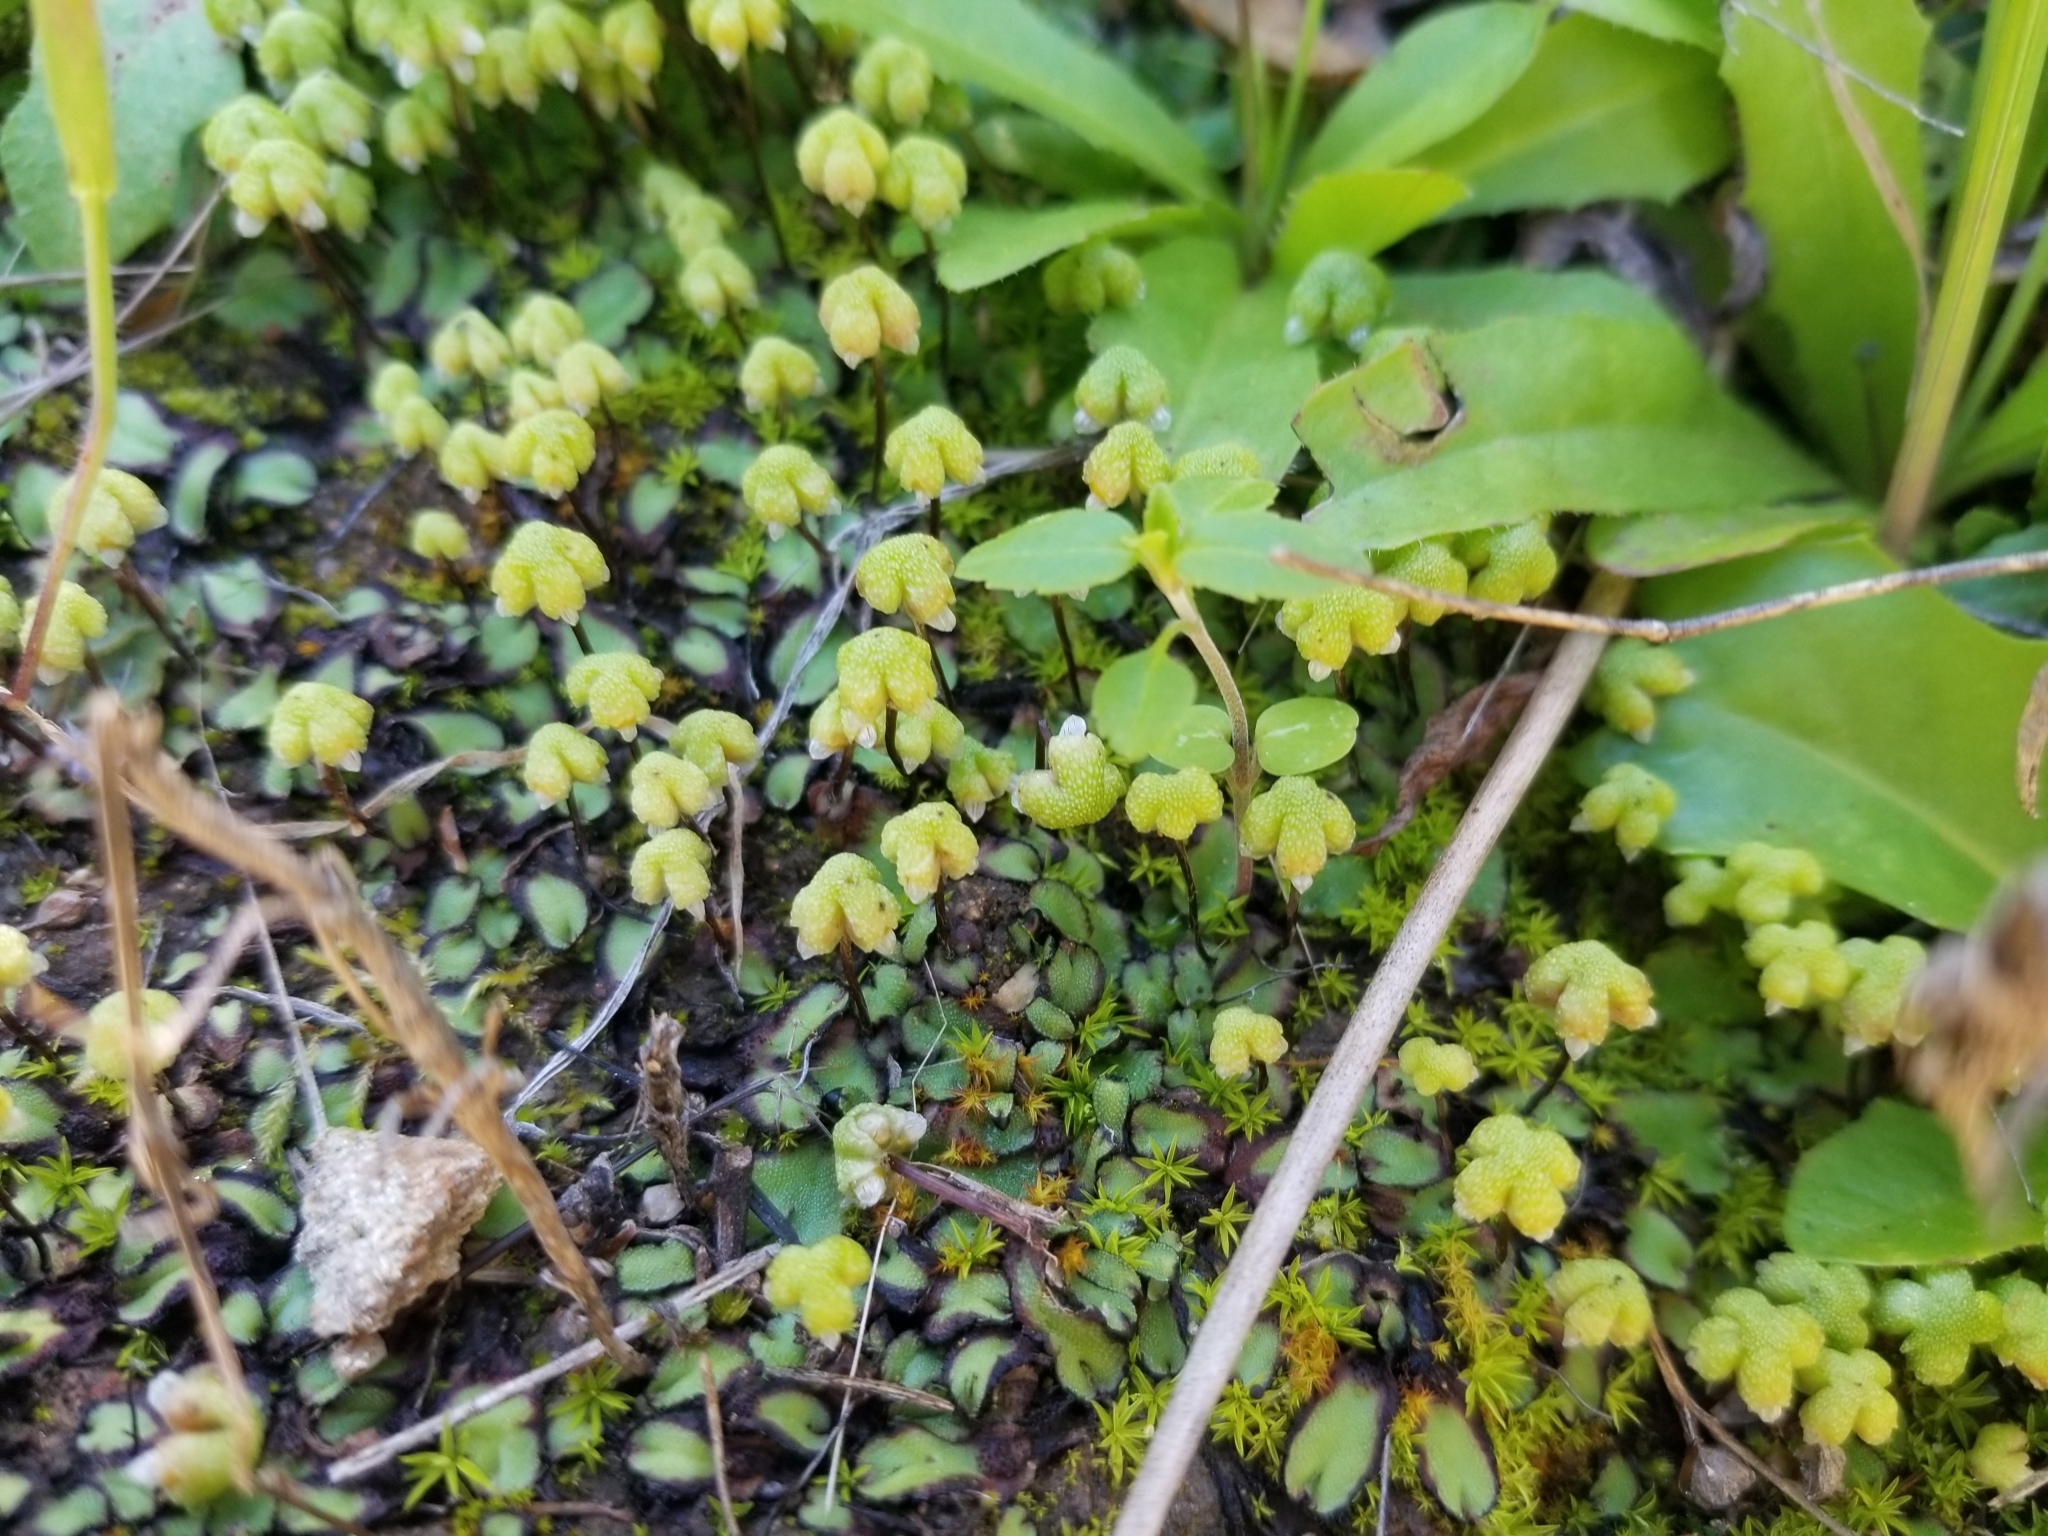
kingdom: Plantae
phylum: Marchantiophyta
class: Marchantiopsida
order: Marchantiales
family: Aytoniaceae
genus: Asterella
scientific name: Asterella californica
